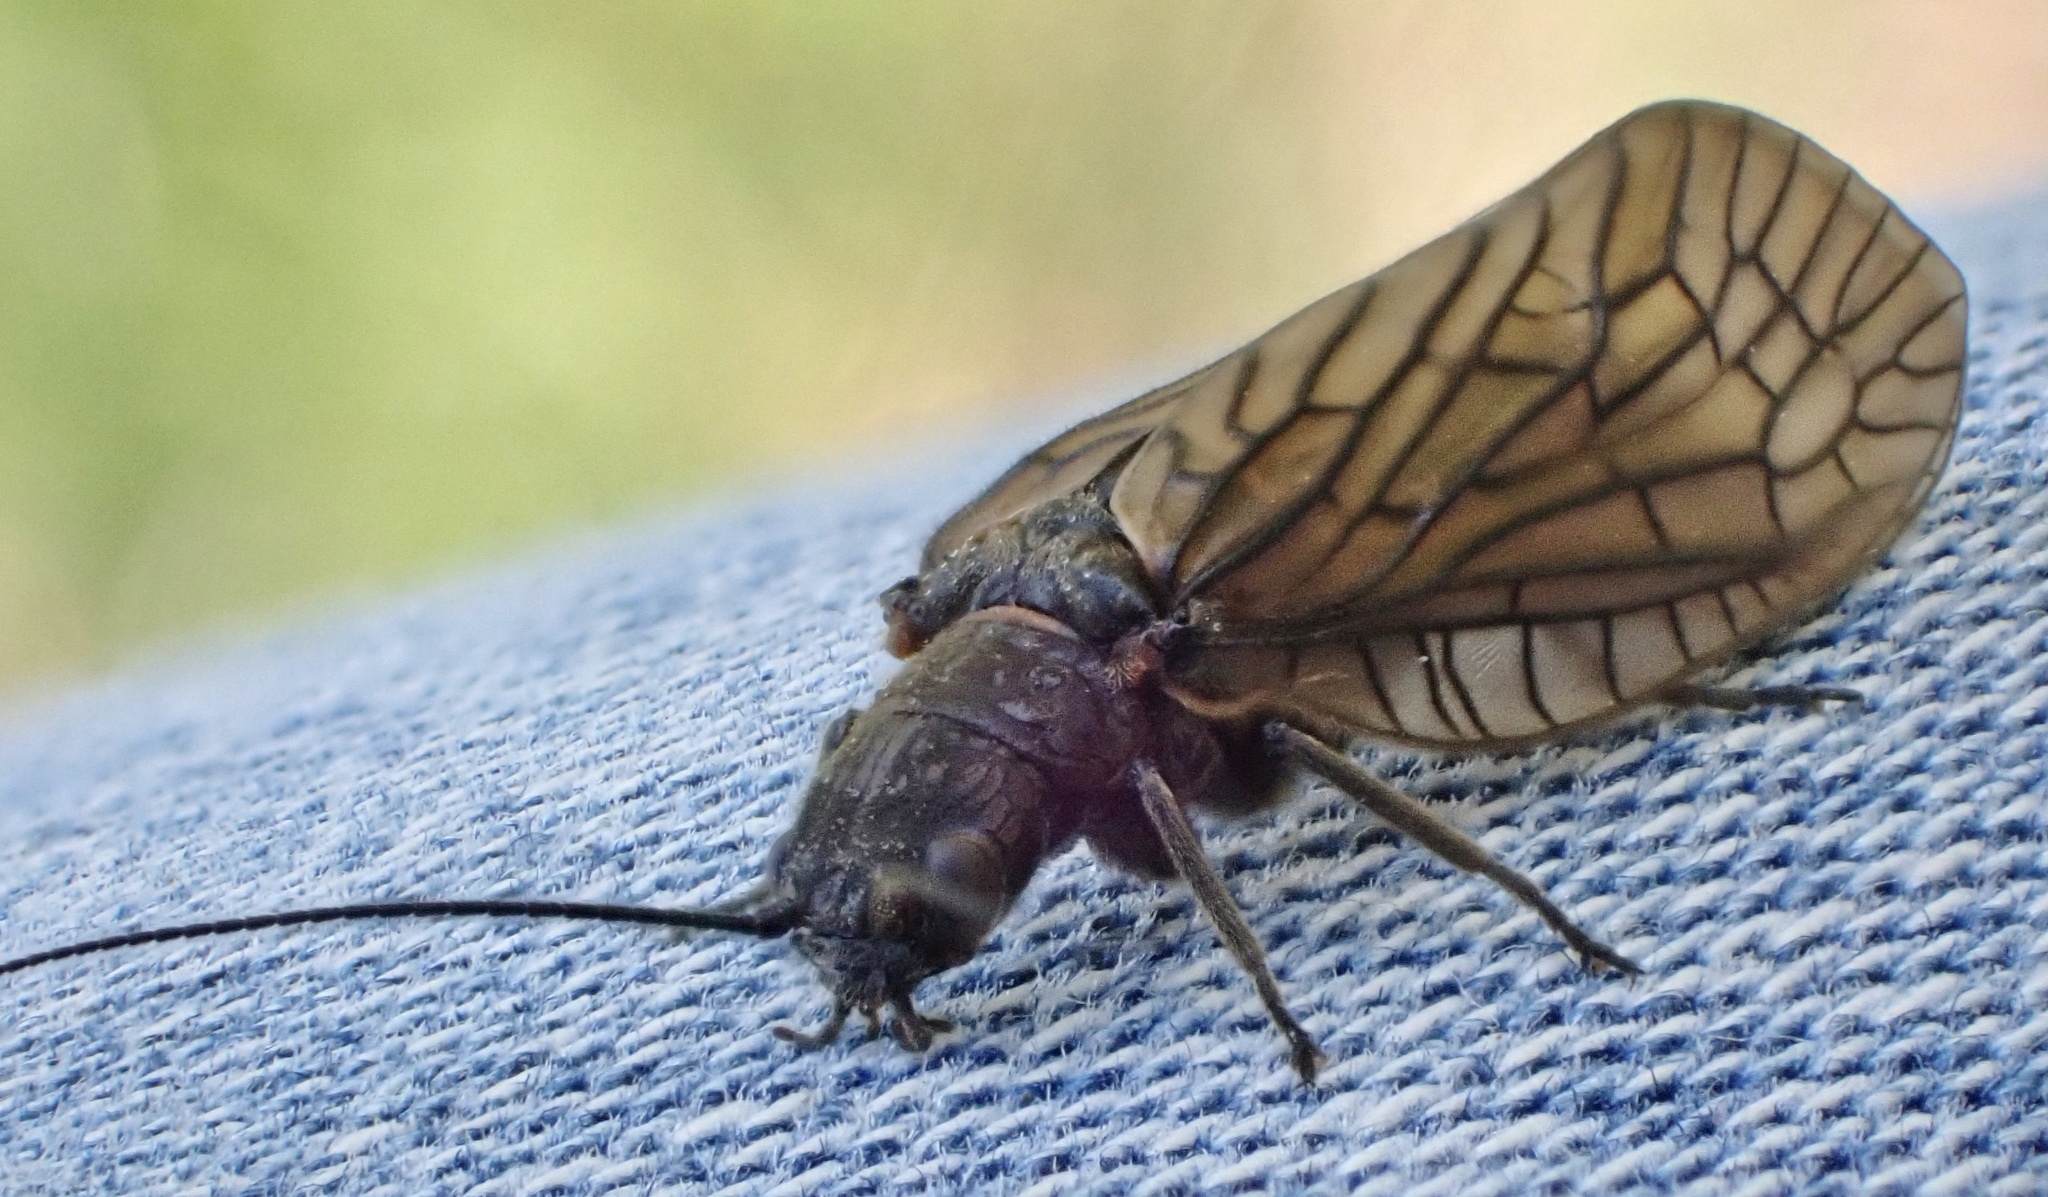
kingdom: Animalia
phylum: Arthropoda
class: Insecta
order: Megaloptera
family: Sialidae
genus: Sialis
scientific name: Sialis
